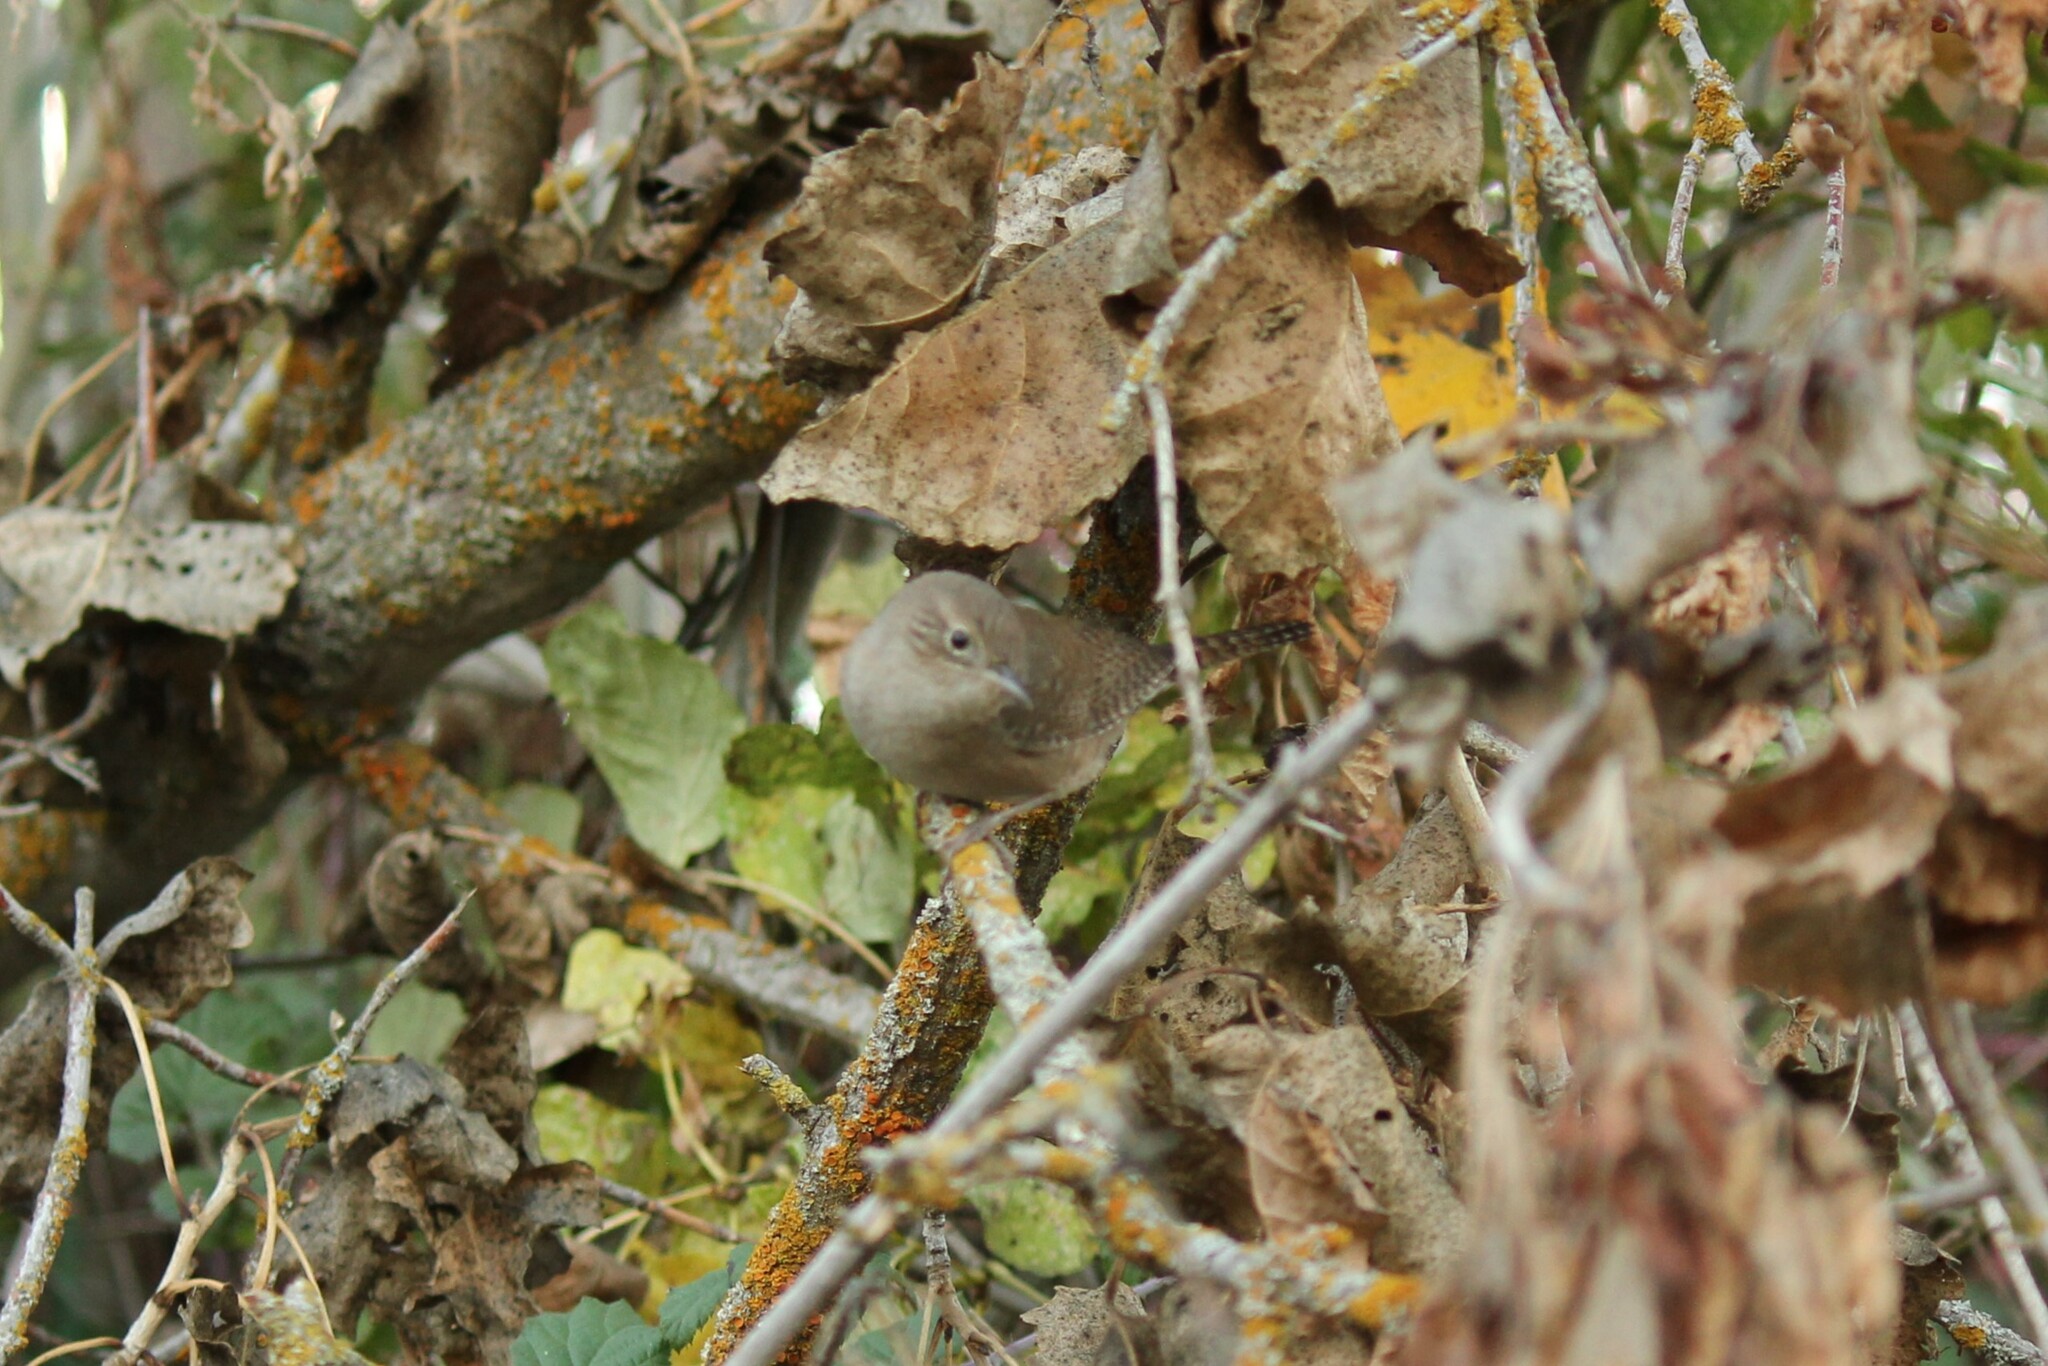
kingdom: Animalia
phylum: Chordata
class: Aves
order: Passeriformes
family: Troglodytidae
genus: Troglodytes
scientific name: Troglodytes aedon
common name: House wren
